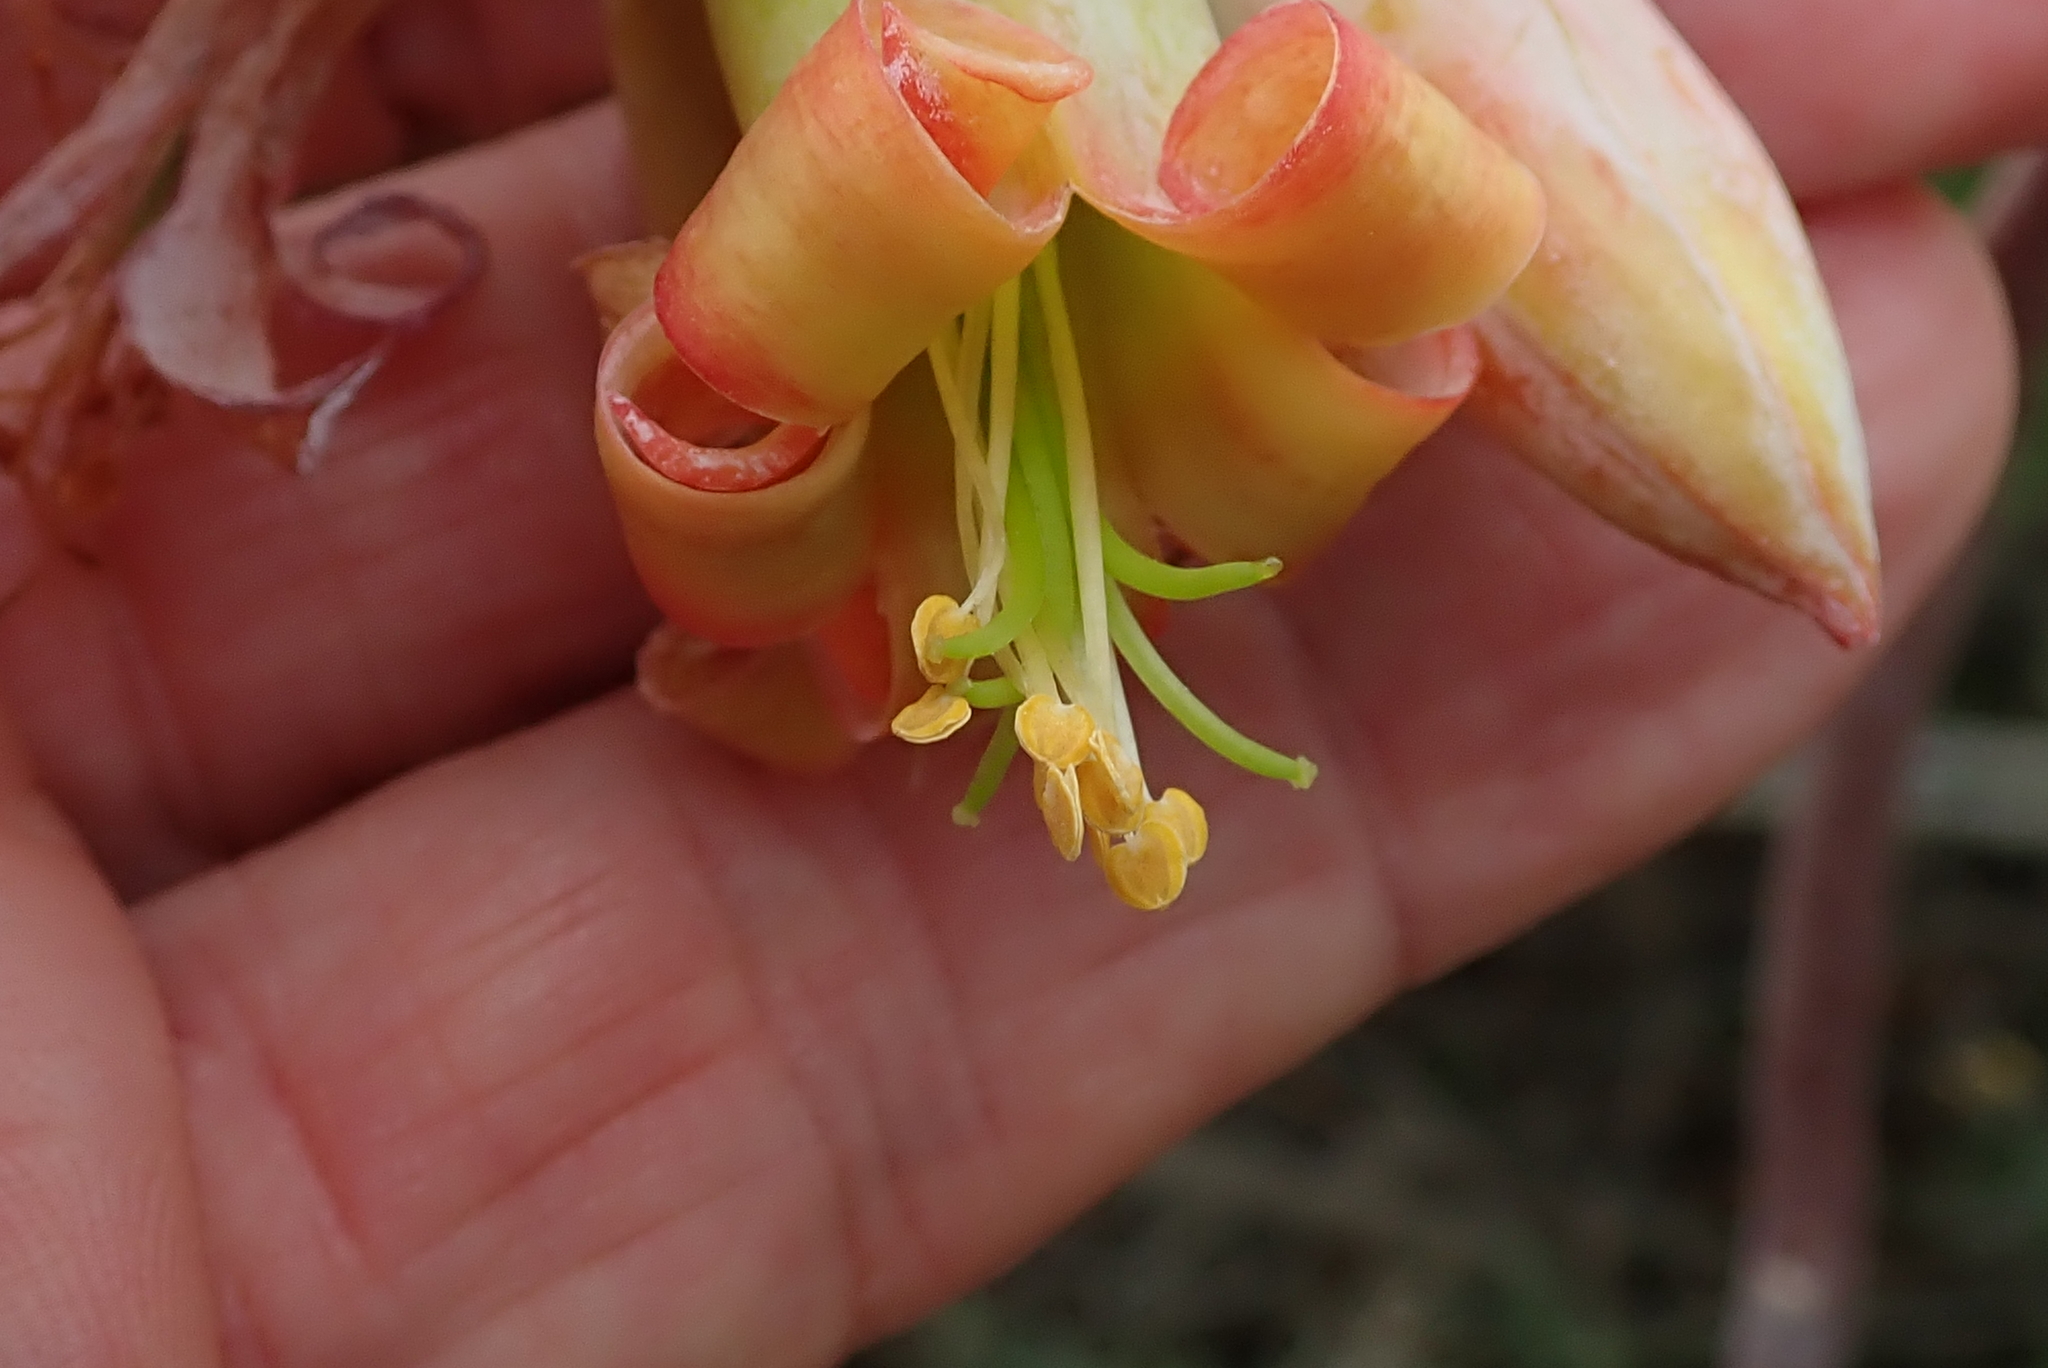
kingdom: Plantae
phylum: Tracheophyta
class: Magnoliopsida
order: Saxifragales
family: Crassulaceae
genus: Cotyledon
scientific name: Cotyledon orbiculata
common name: Pig's ear
